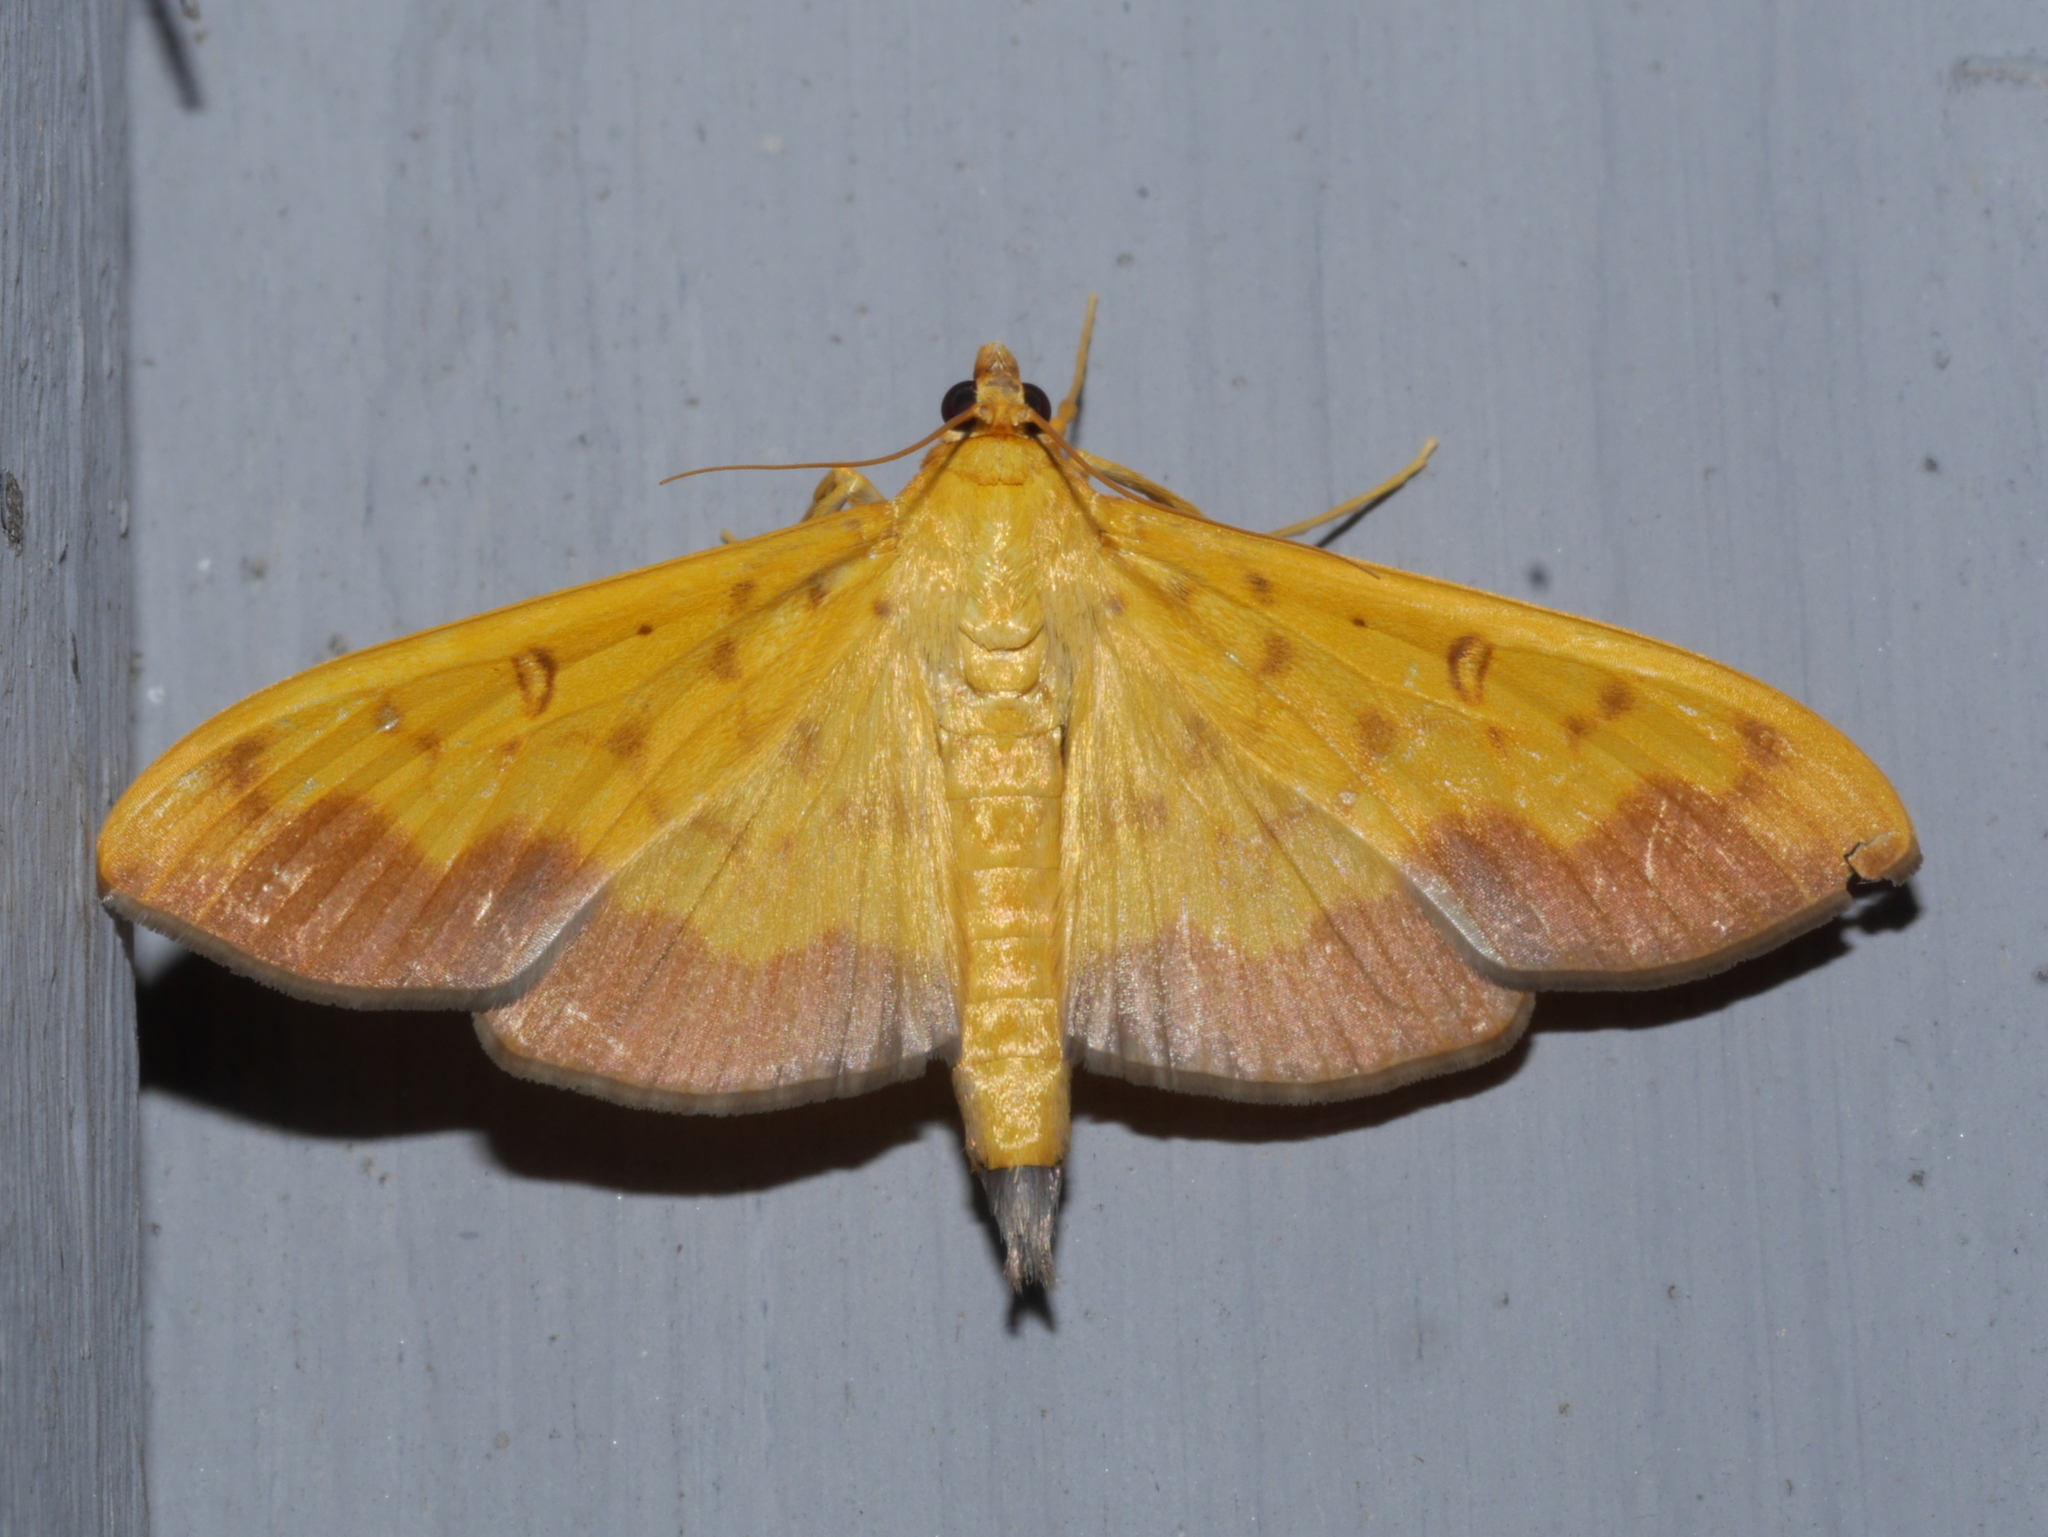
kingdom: Animalia
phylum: Arthropoda
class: Insecta
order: Lepidoptera
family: Crambidae
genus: Botyodes
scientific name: Botyodes asialis
